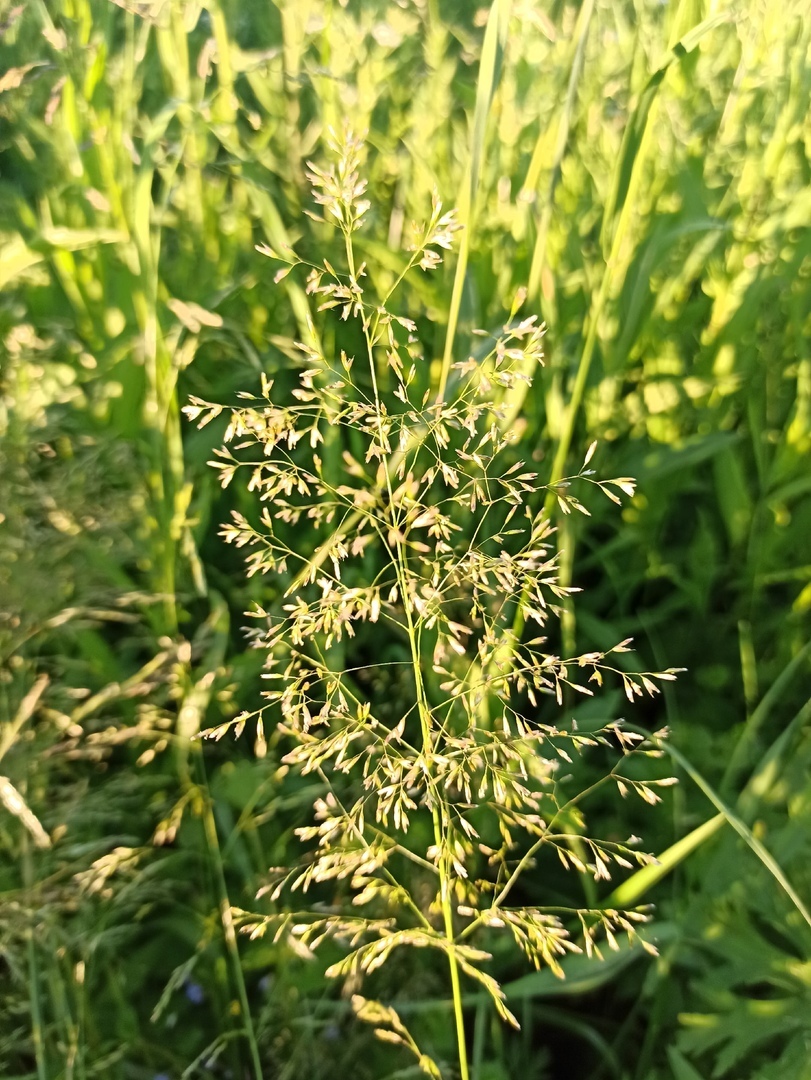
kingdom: Plantae
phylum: Tracheophyta
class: Liliopsida
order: Poales
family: Poaceae
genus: Deschampsia
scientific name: Deschampsia cespitosa
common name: Tufted hair-grass
